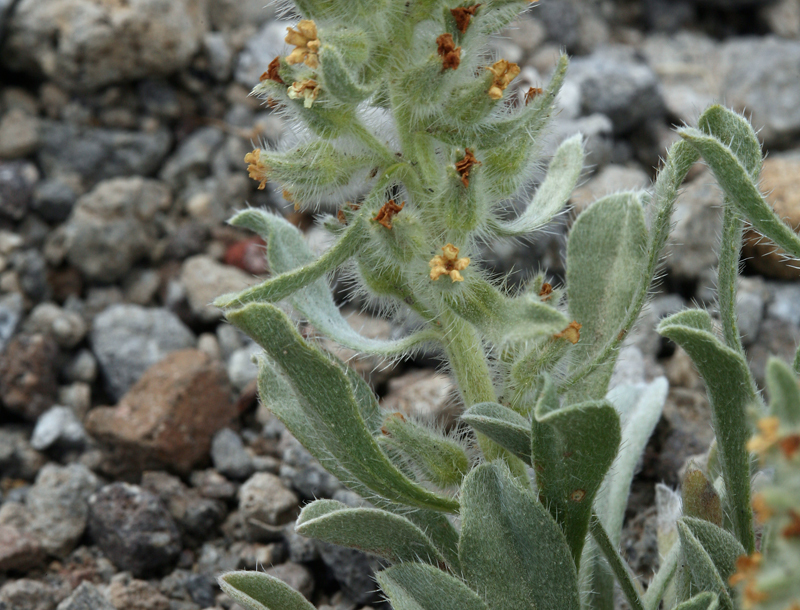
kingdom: Plantae
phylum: Tracheophyta
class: Magnoliopsida
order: Boraginales
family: Boraginaceae
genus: Oreocarya
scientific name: Oreocarya humilis
